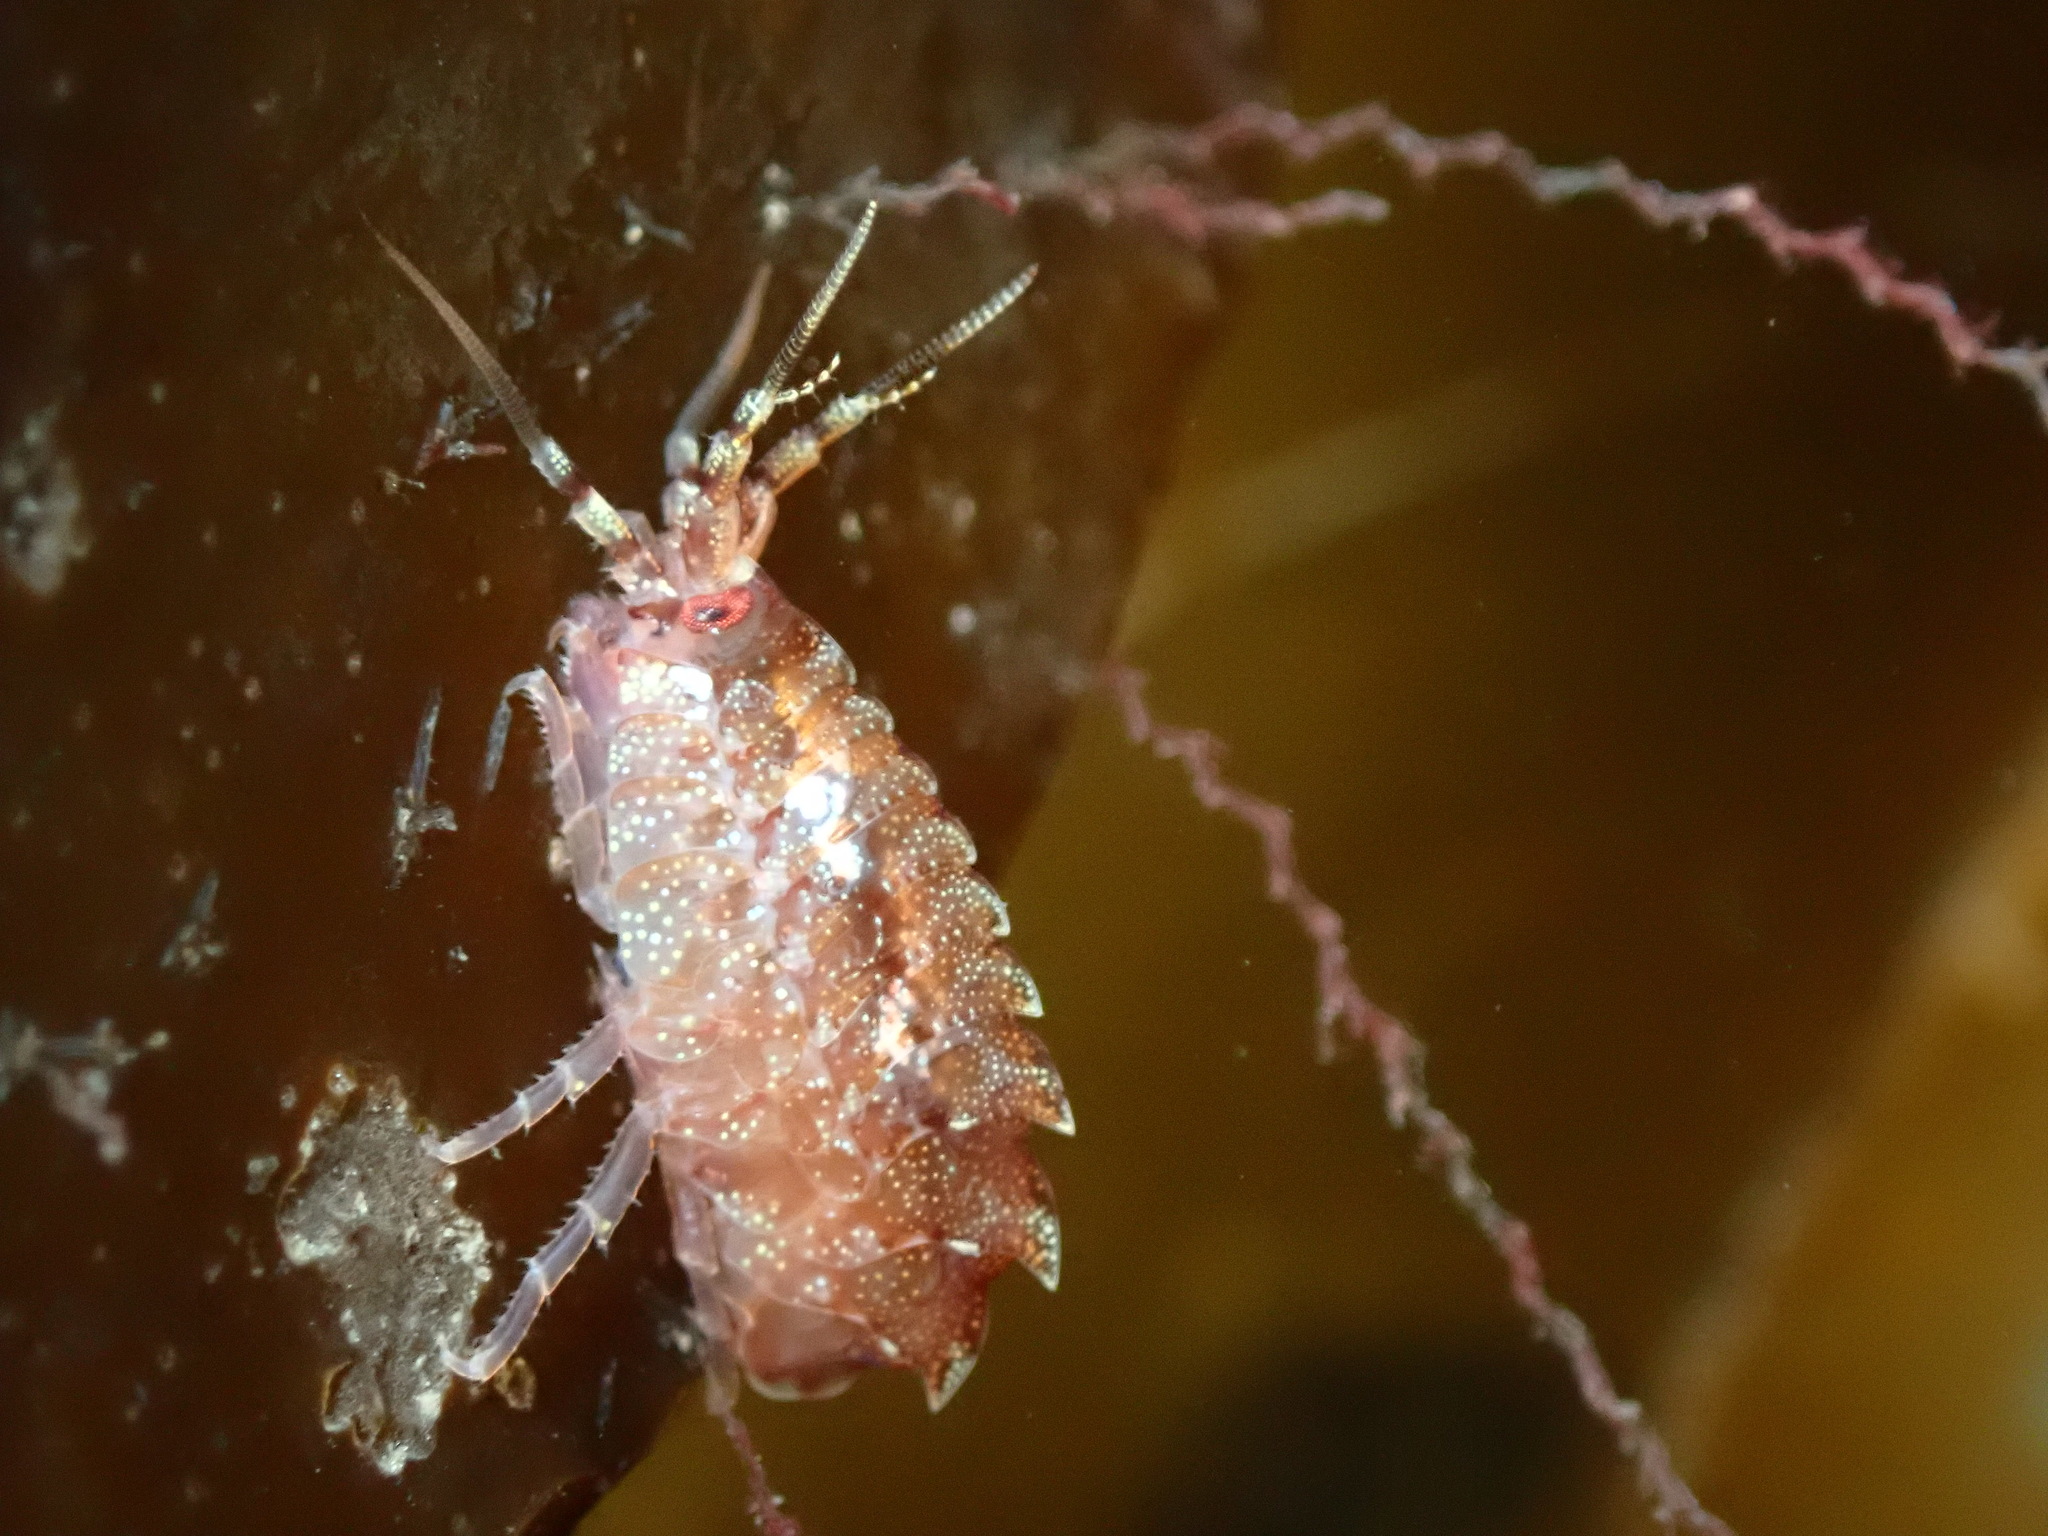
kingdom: Animalia
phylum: Arthropoda
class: Malacostraca
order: Amphipoda
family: Gammarellidae
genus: Gammarellus
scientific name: Gammarellus homari
